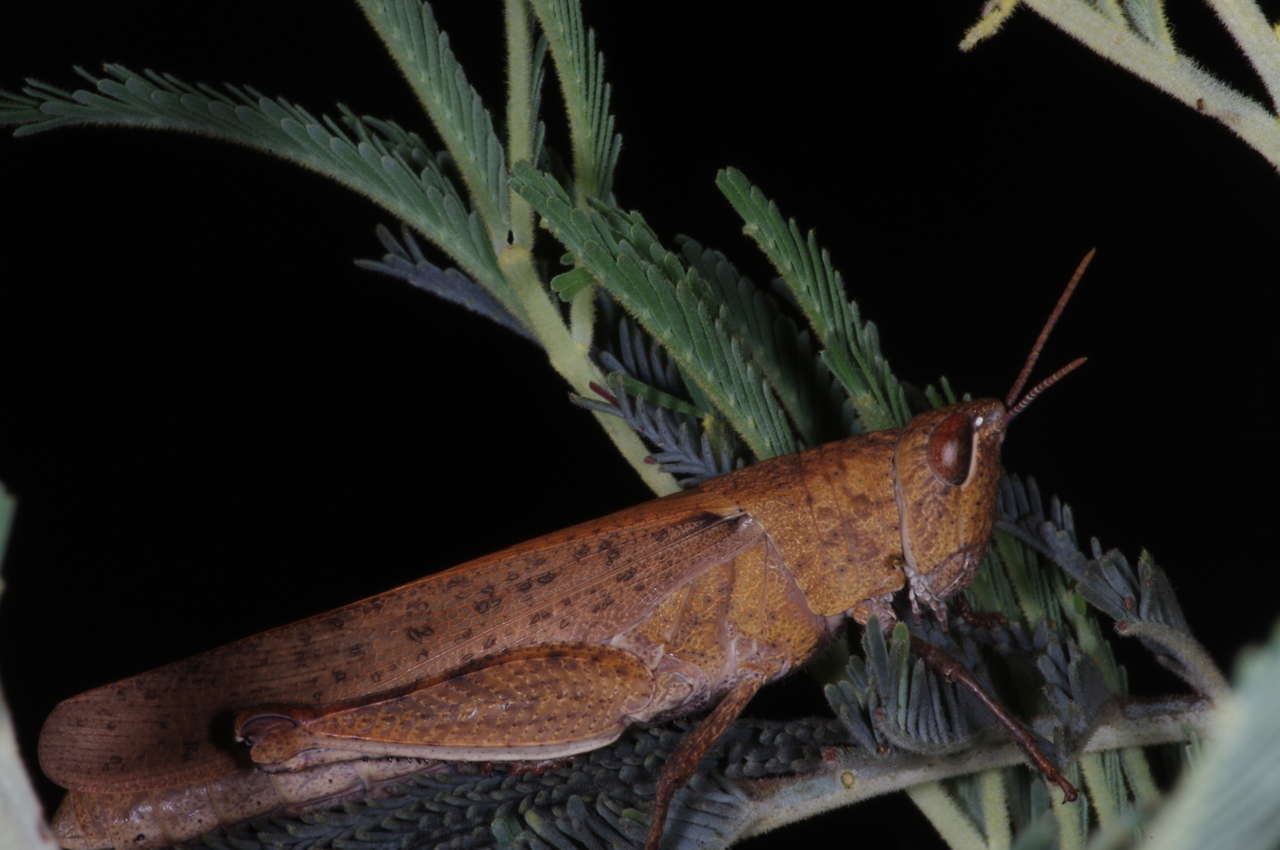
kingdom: Animalia
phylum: Arthropoda
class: Insecta
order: Orthoptera
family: Acrididae
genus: Goniaea
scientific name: Goniaea opomaloides
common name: Mimetic gumleaf grasshopper
